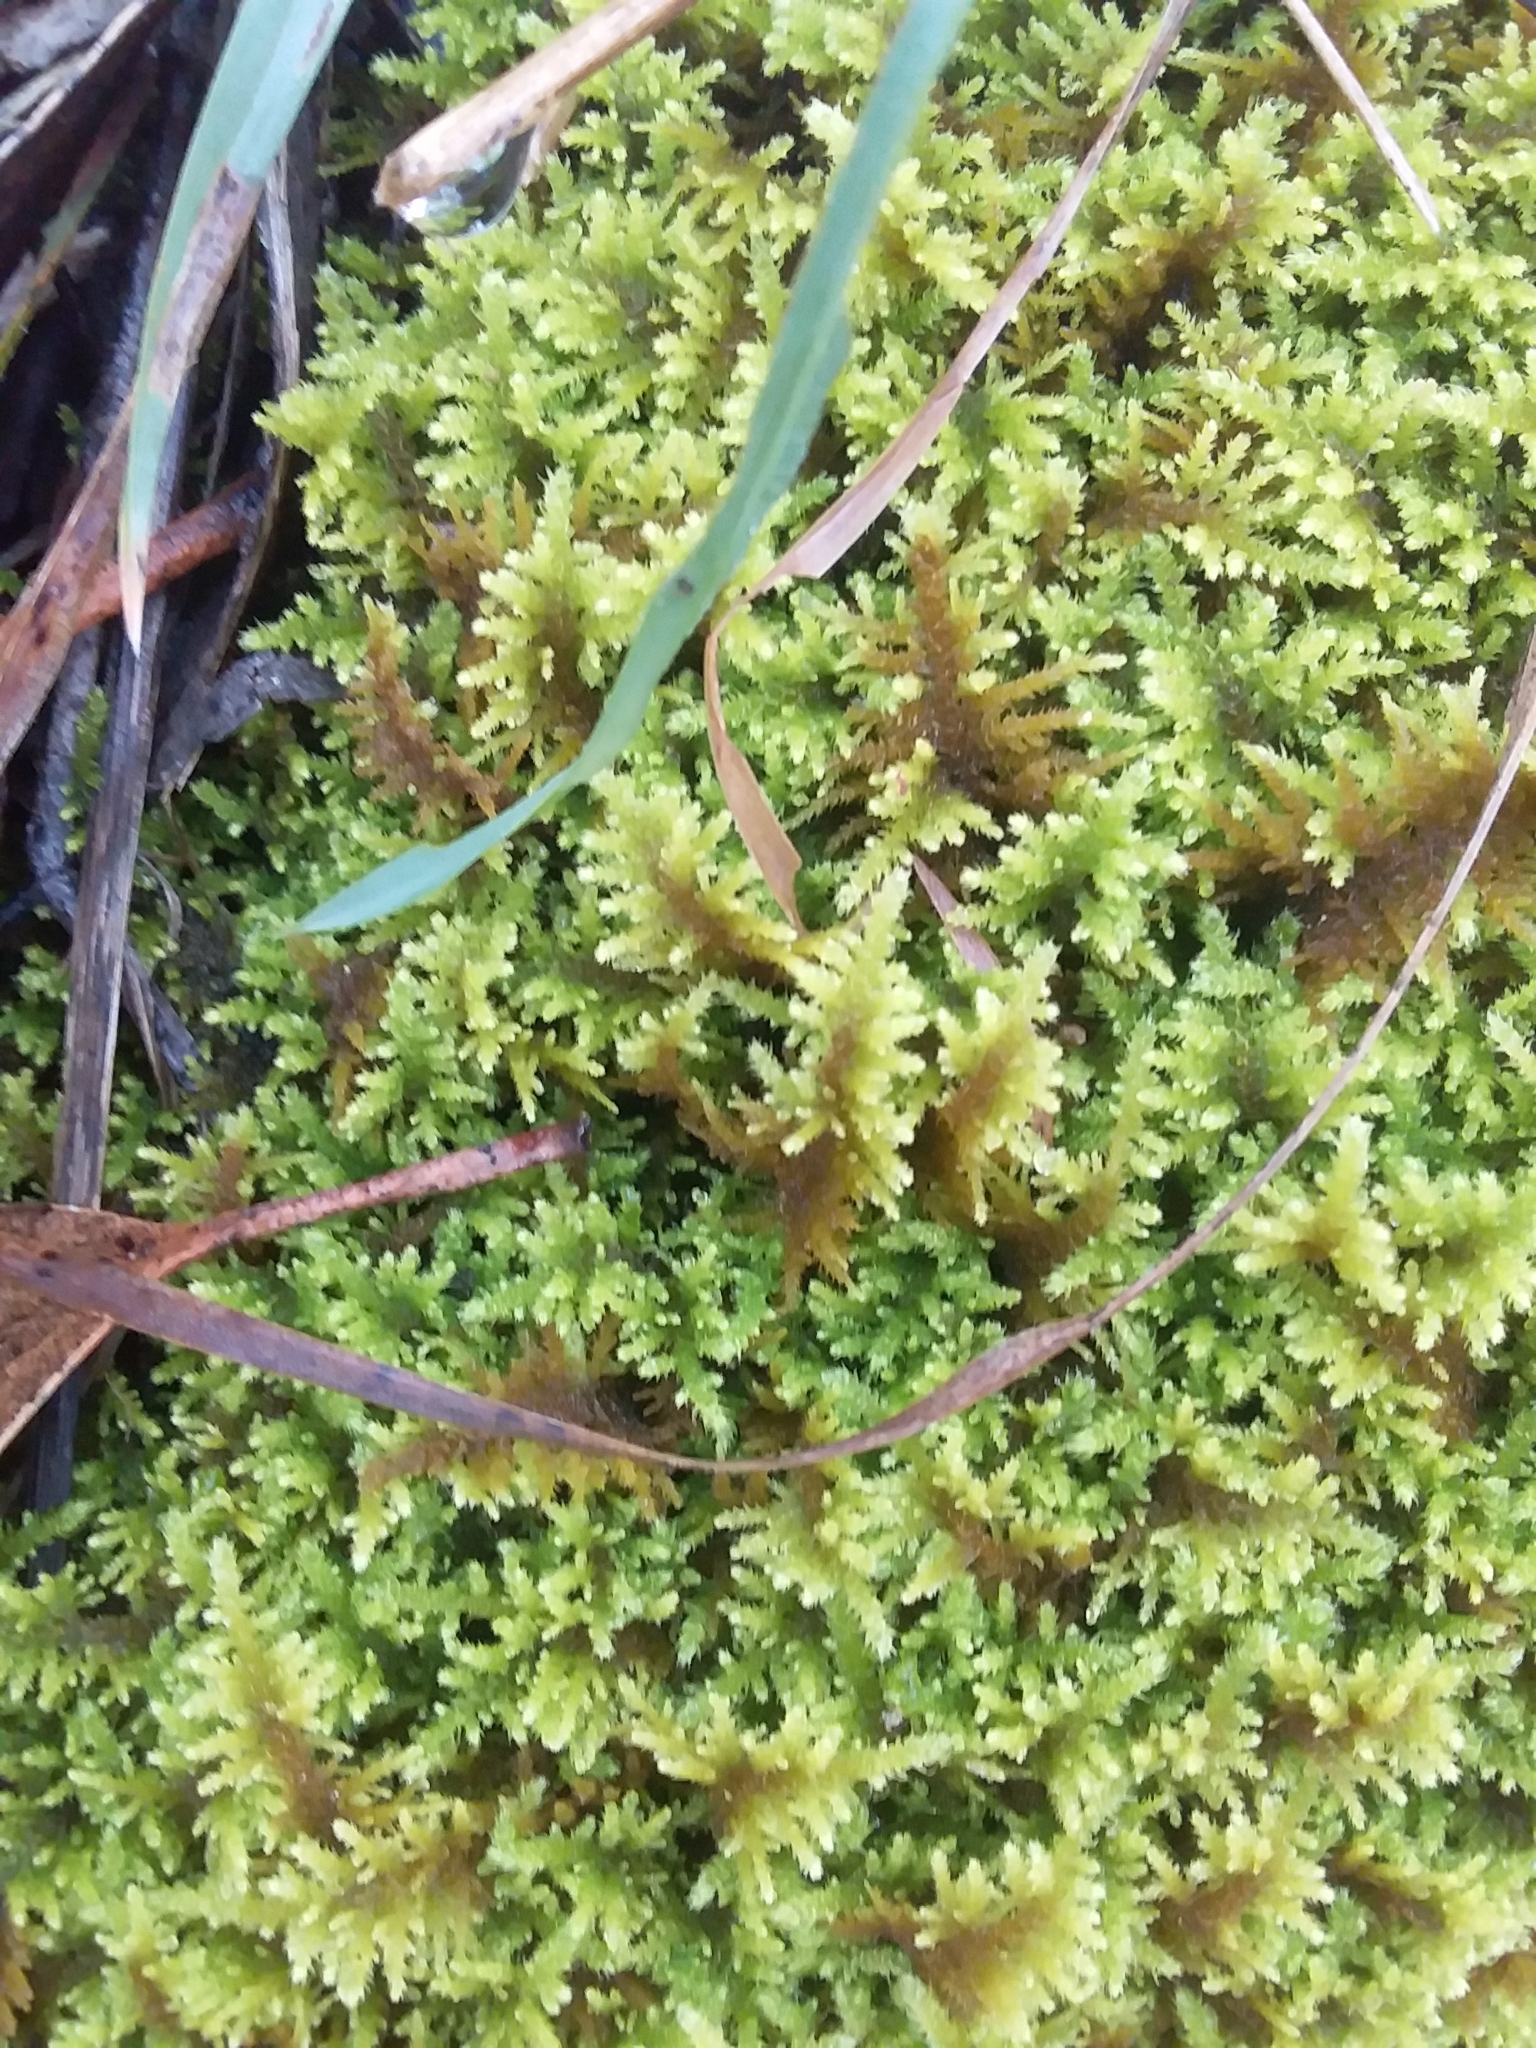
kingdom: Plantae
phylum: Bryophyta
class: Bryopsida
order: Hypnales
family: Thuidiaceae
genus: Thuidiopsis
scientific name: Thuidiopsis sparsa
